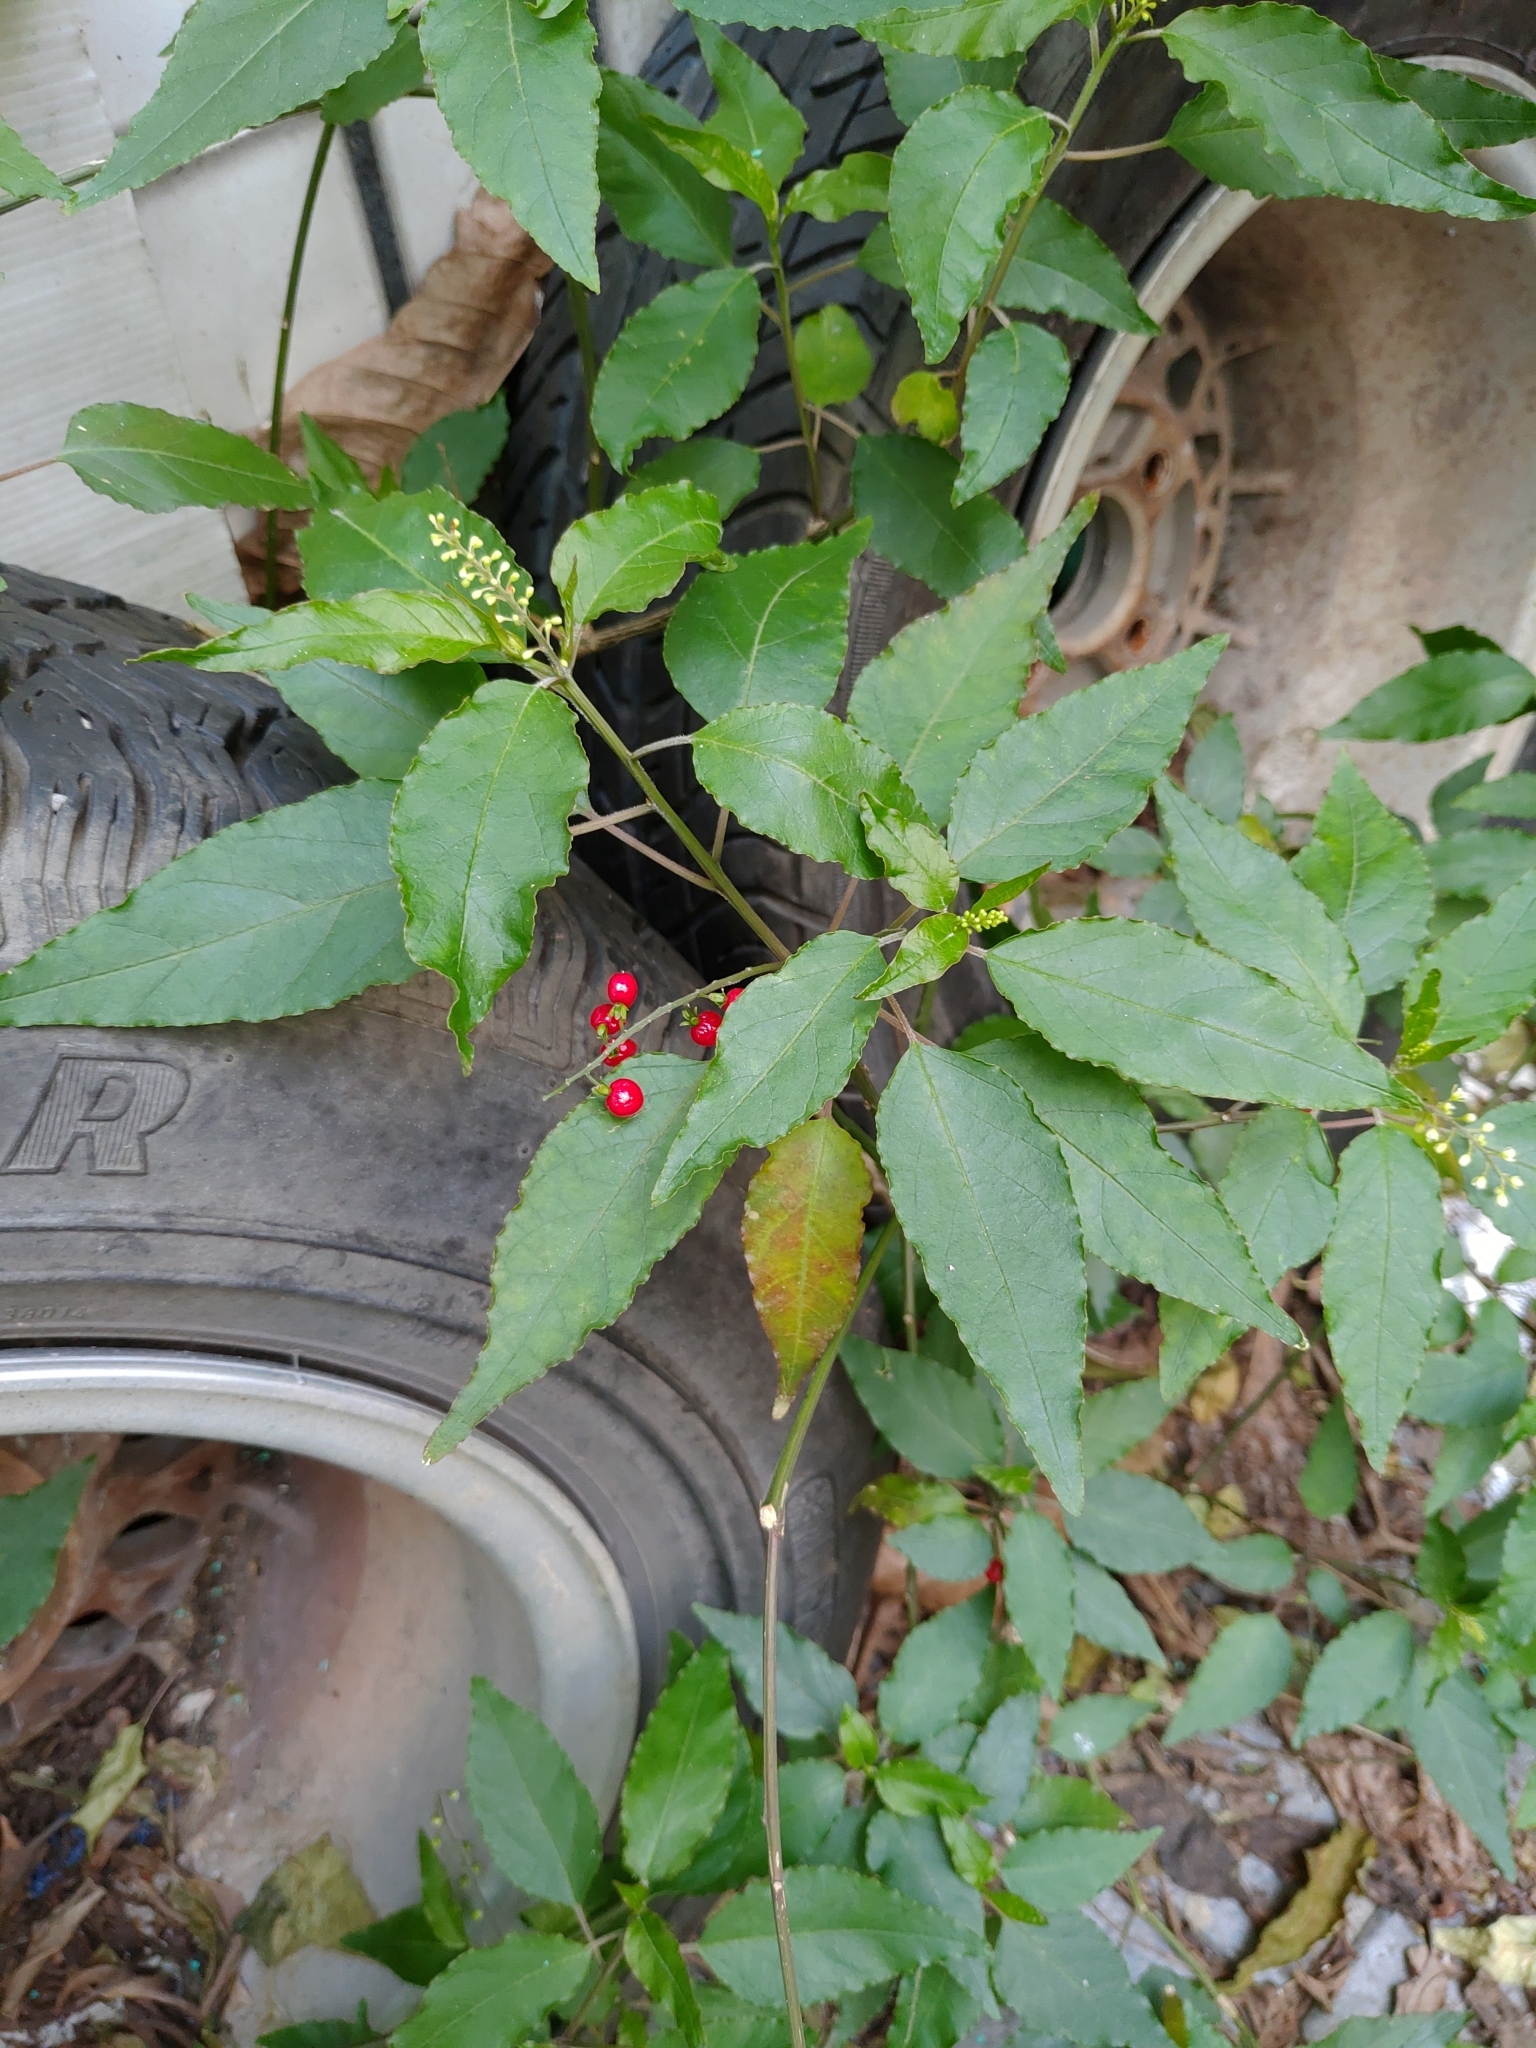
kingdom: Plantae
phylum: Tracheophyta
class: Magnoliopsida
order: Caryophyllales
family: Phytolaccaceae
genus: Rivina
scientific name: Rivina humilis
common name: Rougeplant
